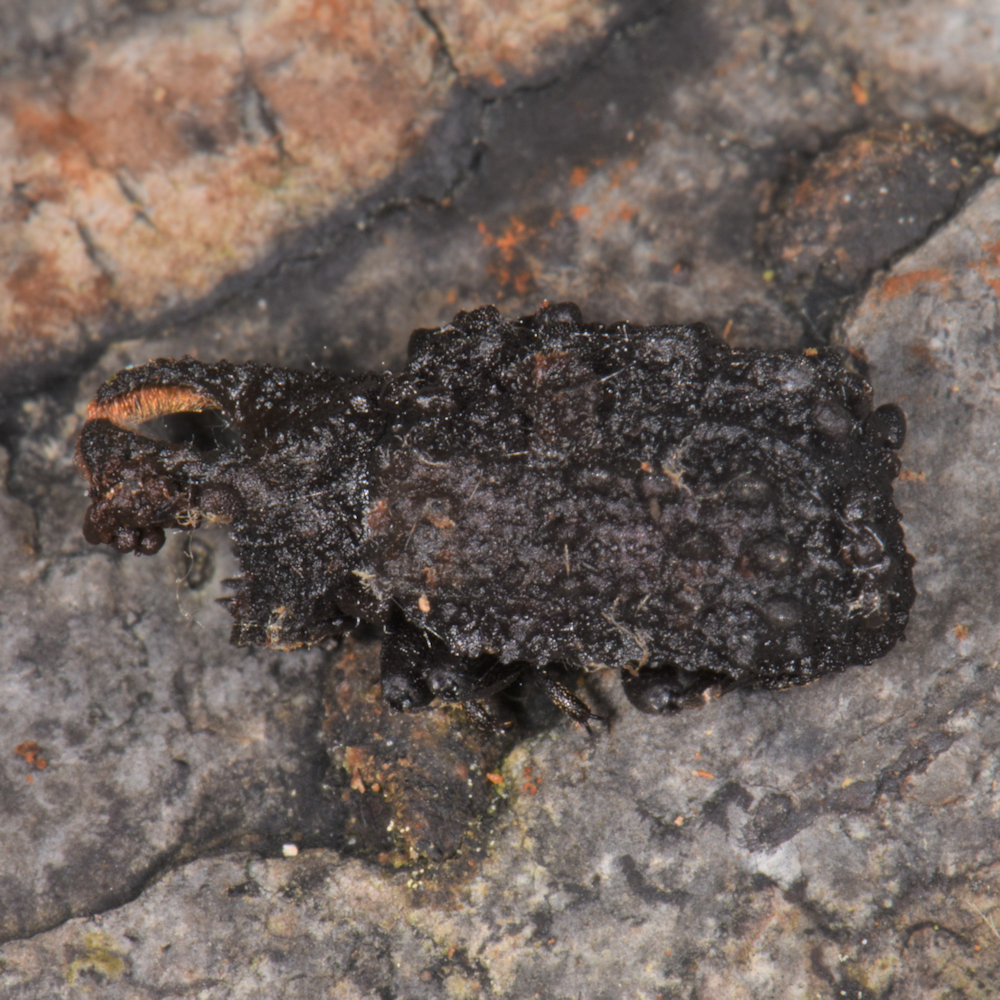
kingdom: Animalia
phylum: Arthropoda
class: Insecta
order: Coleoptera
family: Tenebrionidae
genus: Gnatocerus
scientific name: Gnatocerus cornutus
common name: Broad-horned flour beetle
